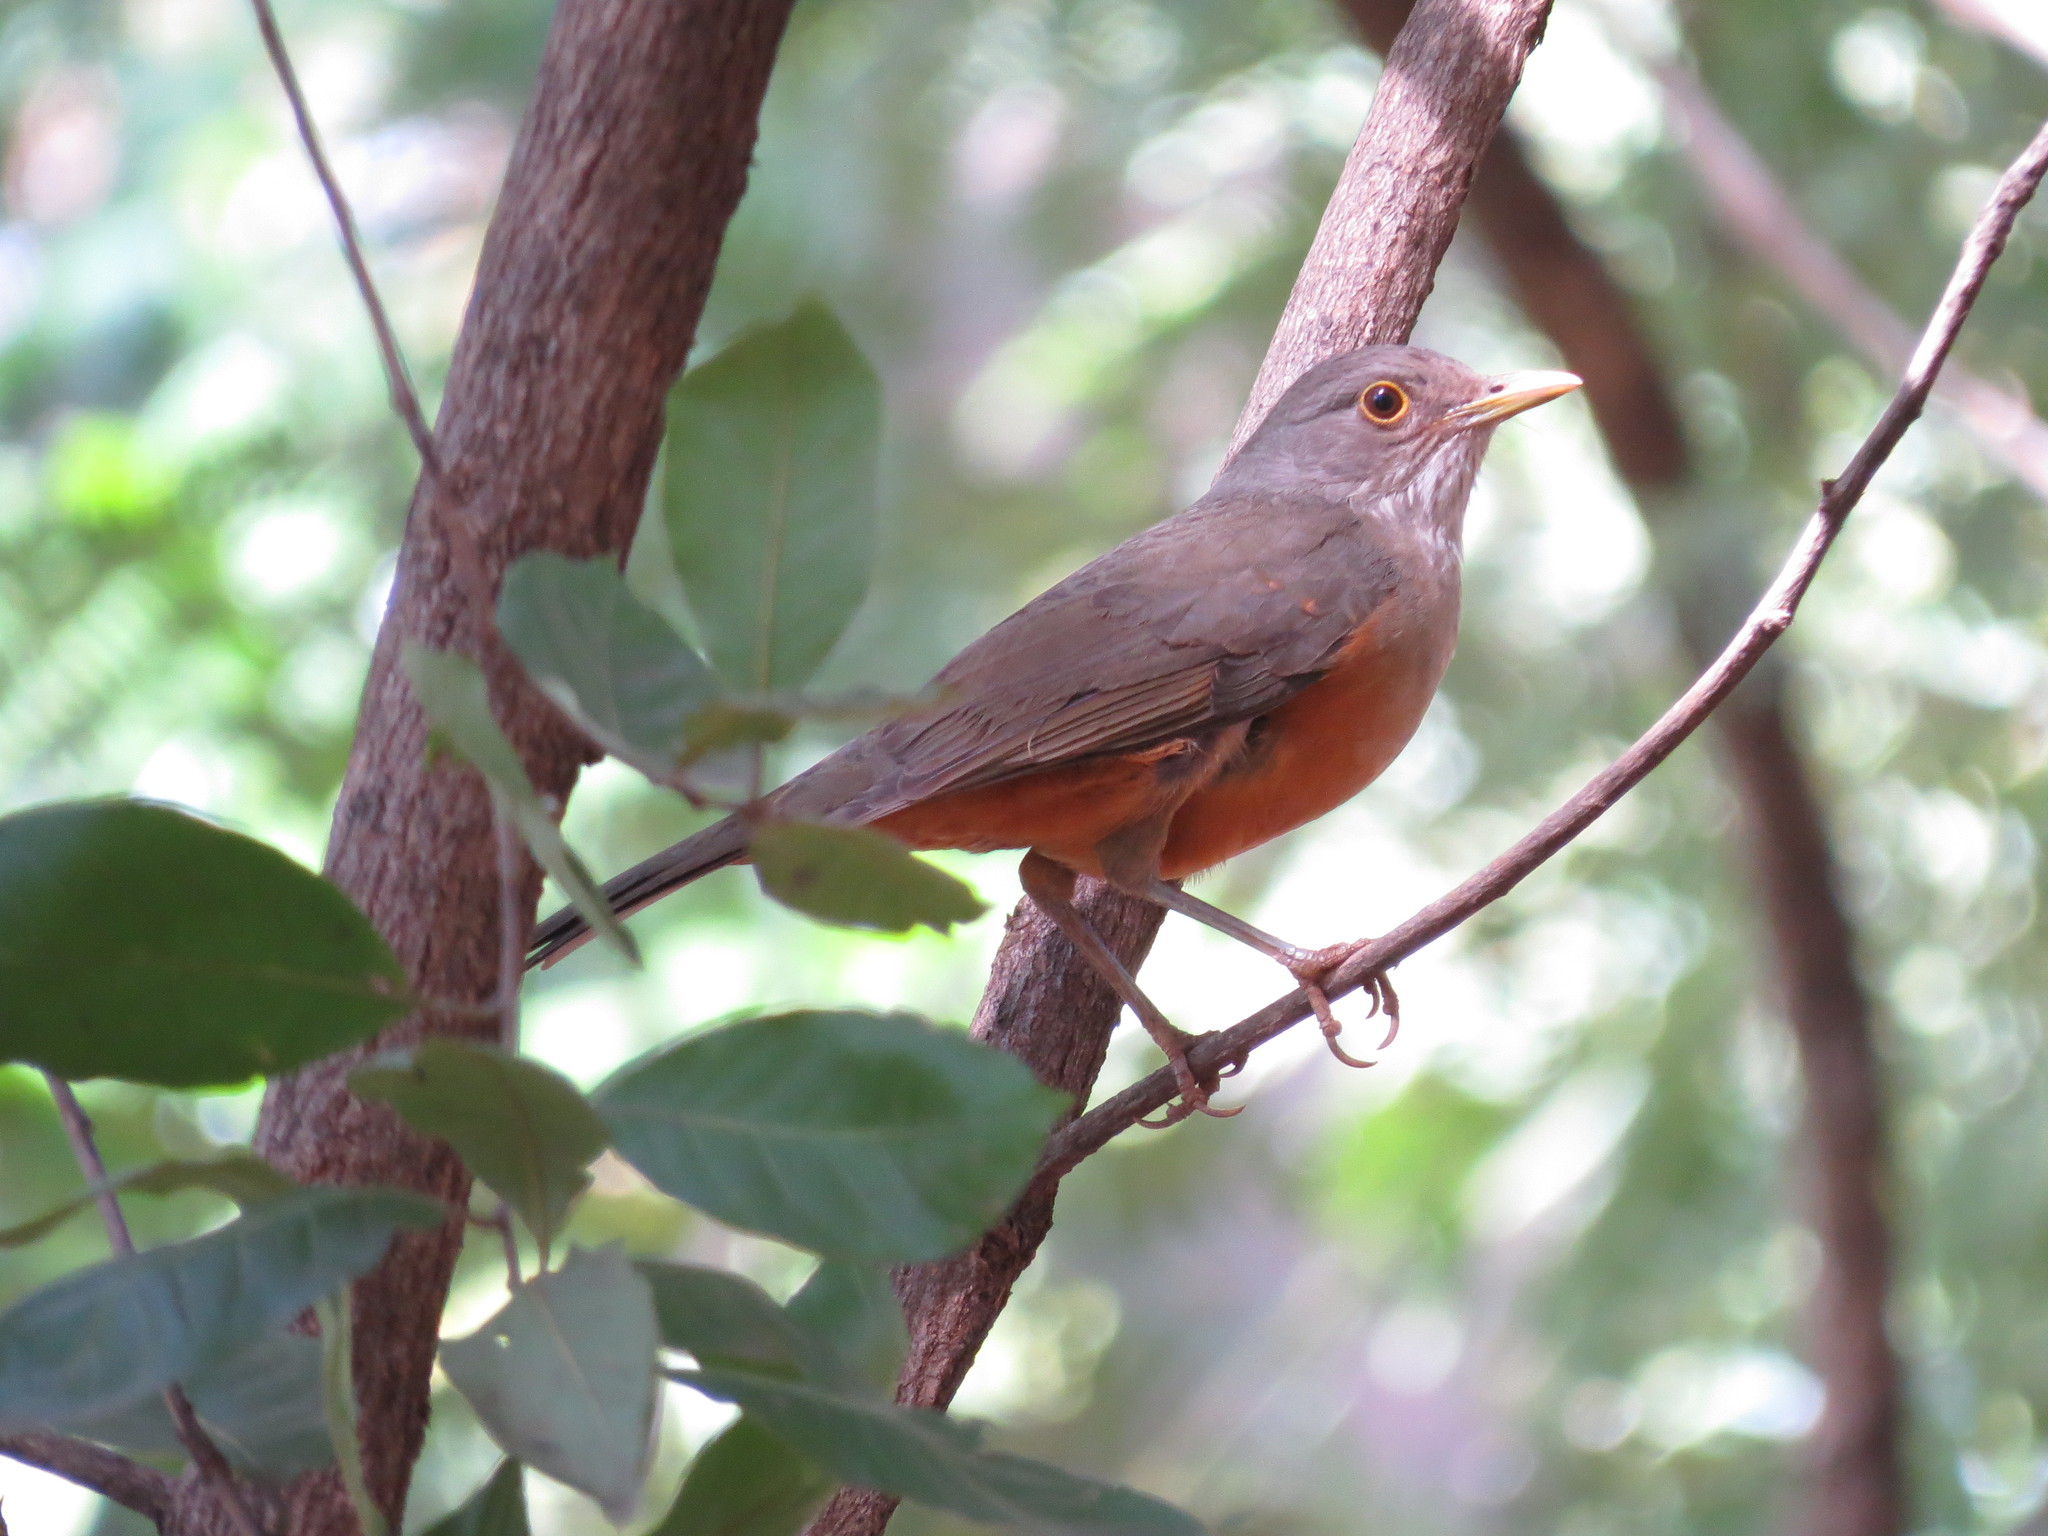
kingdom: Animalia
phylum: Chordata
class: Aves
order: Passeriformes
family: Turdidae
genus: Turdus
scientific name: Turdus rufiventris
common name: Rufous-bellied thrush
